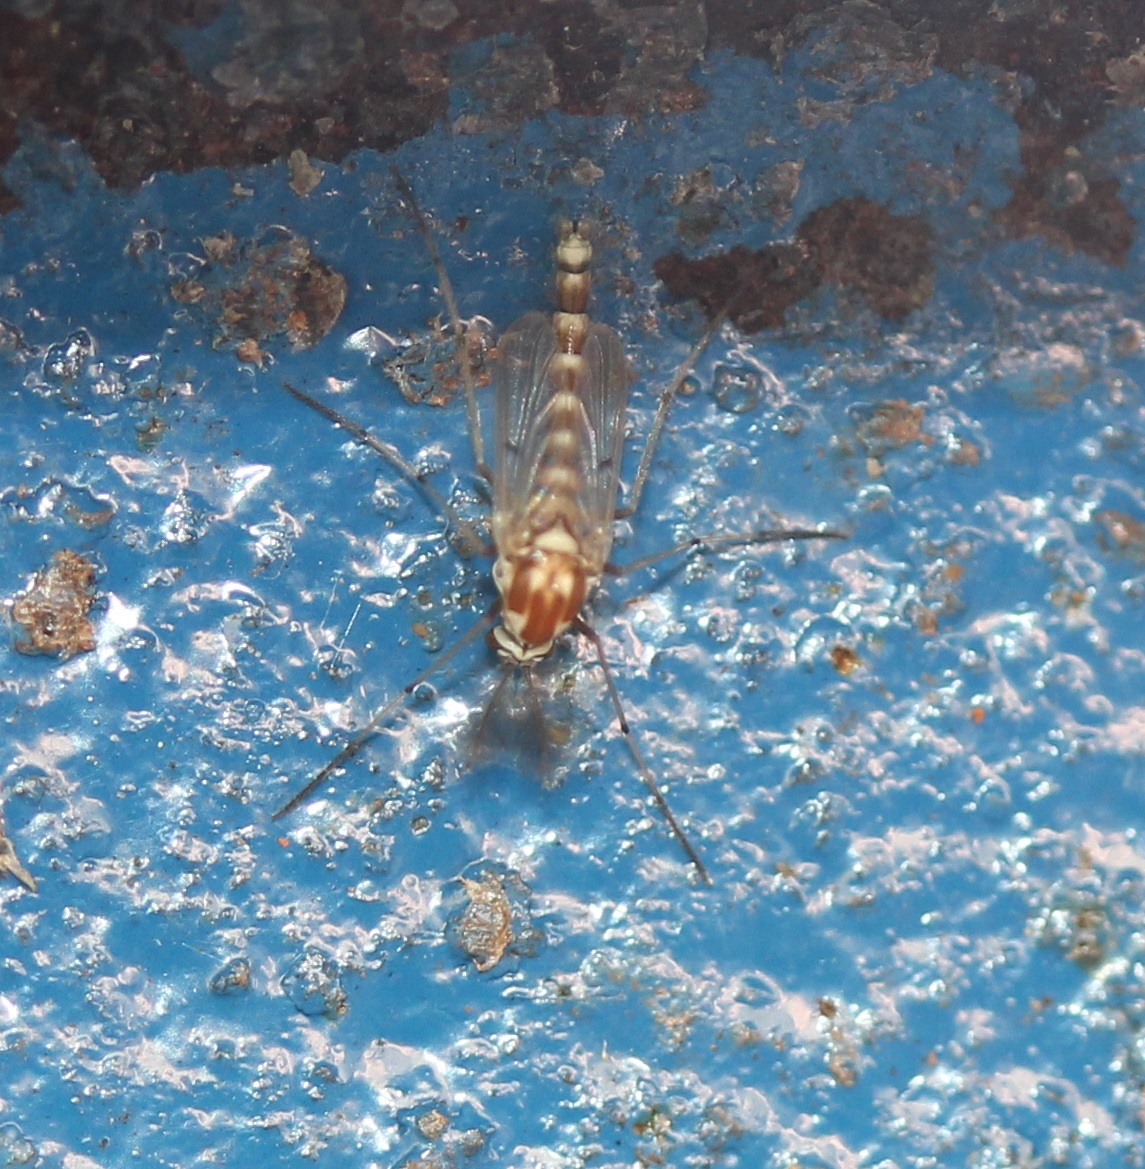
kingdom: Animalia
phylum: Arthropoda
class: Insecta
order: Diptera
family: Chironomidae
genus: Procladius
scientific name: Procladius bellus
